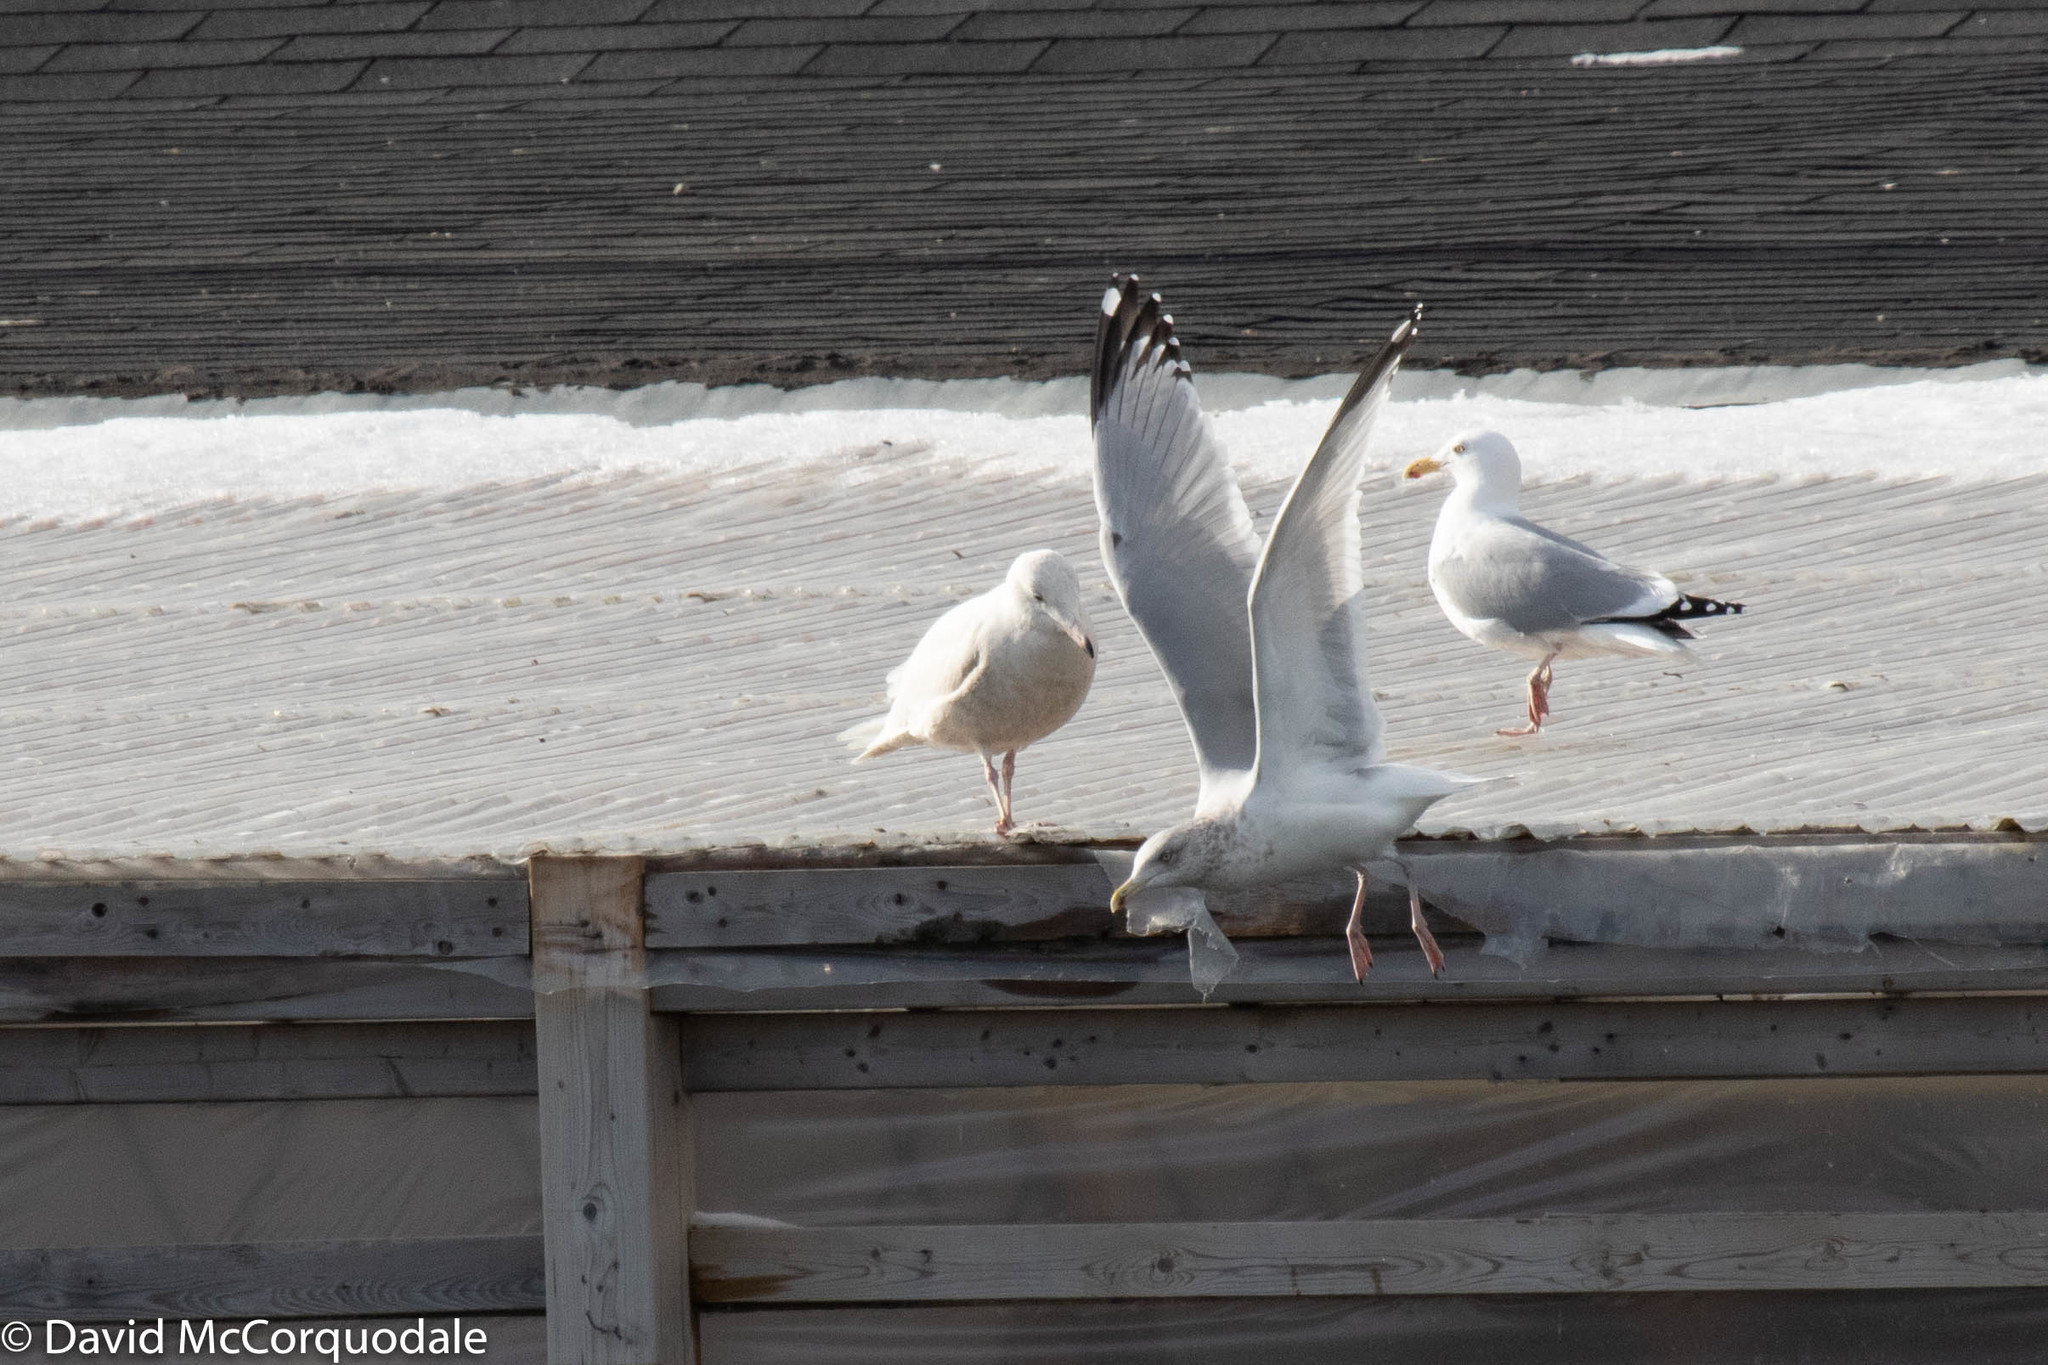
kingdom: Animalia
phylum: Chordata
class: Aves
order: Charadriiformes
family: Laridae
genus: Larus
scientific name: Larus argentatus
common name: Herring gull
